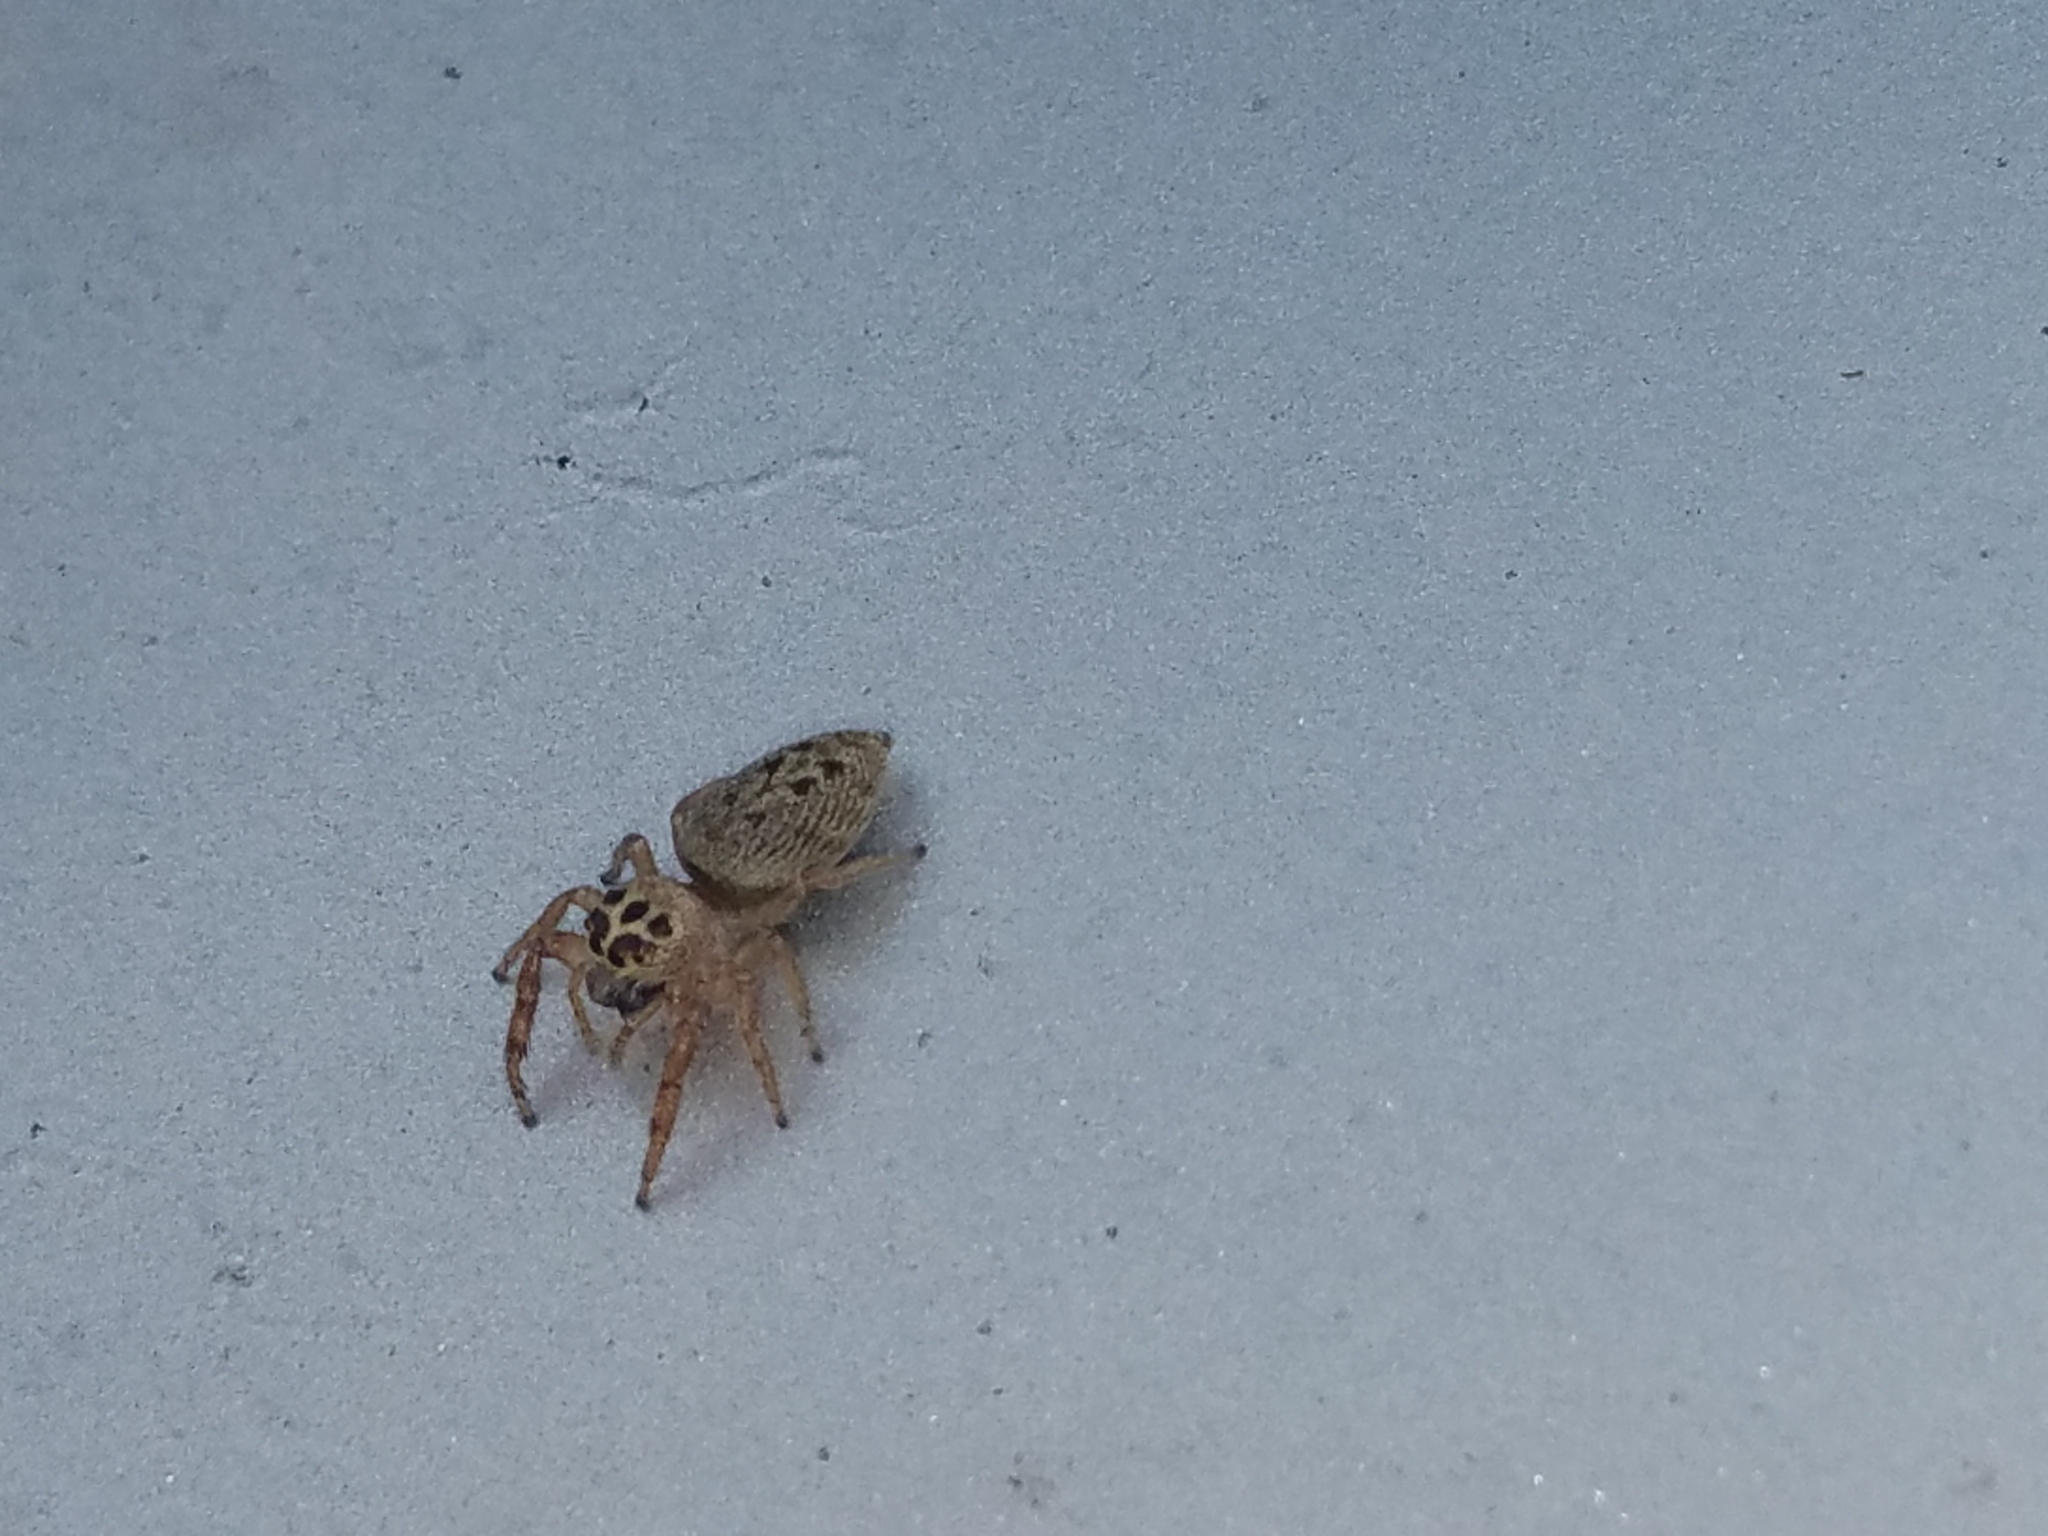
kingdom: Animalia
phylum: Arthropoda
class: Arachnida
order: Araneae
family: Salticidae
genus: Opisthoncus
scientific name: Opisthoncus polyphemus
